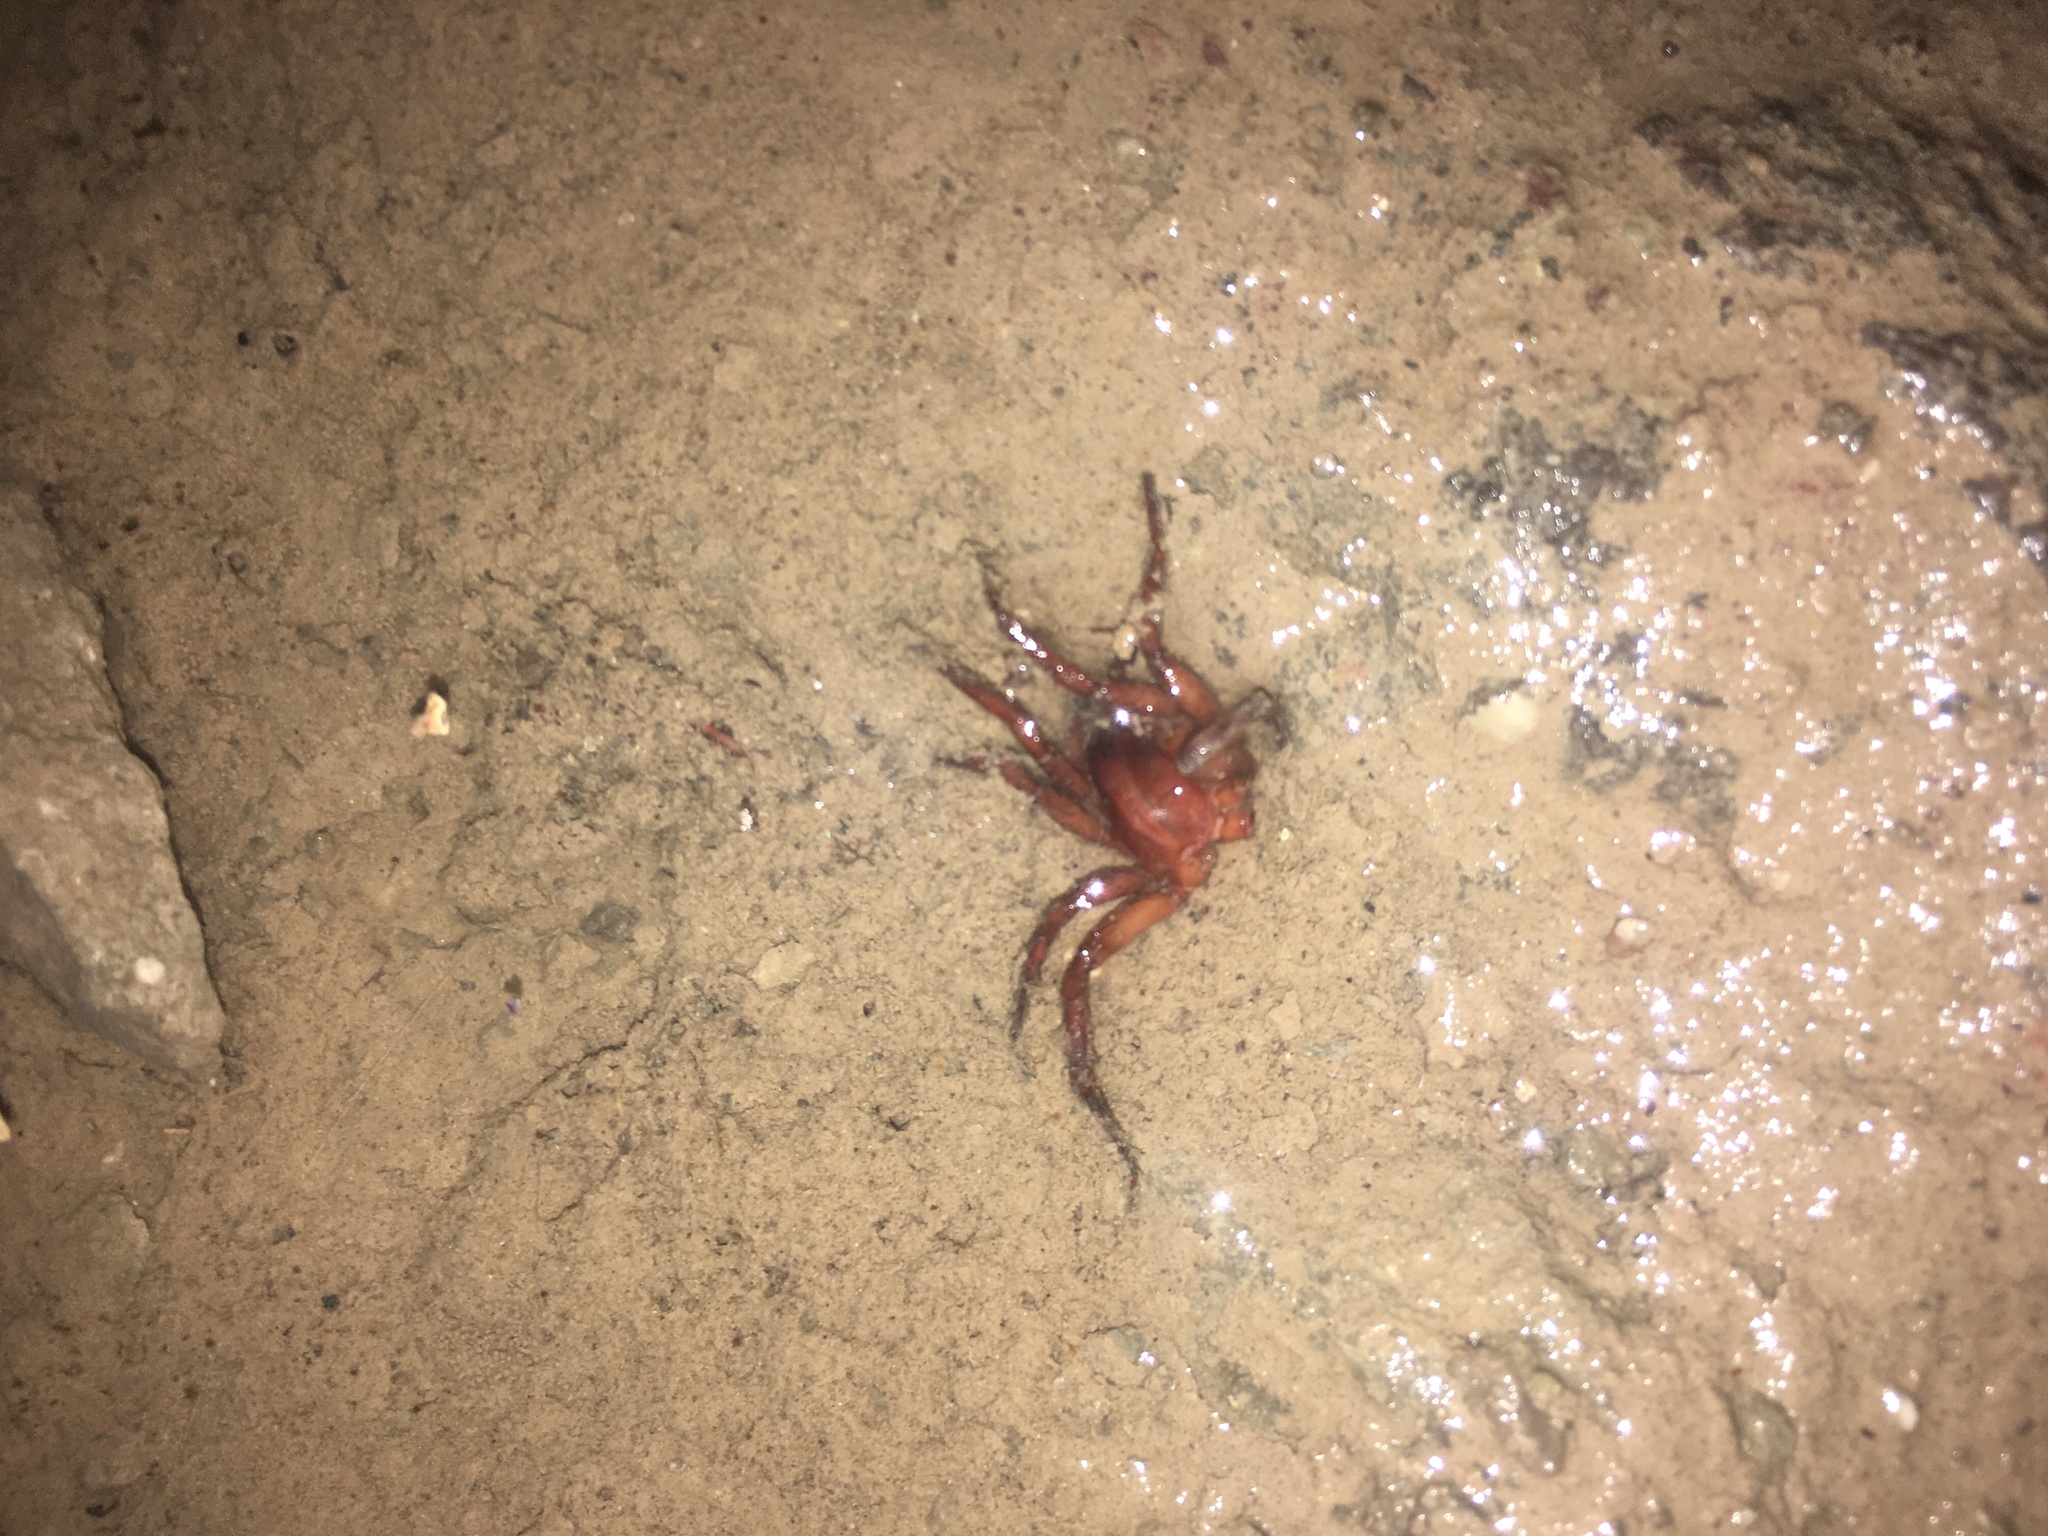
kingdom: Animalia
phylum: Arthropoda
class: Arachnida
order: Araneae
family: Dysderidae
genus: Dysdera
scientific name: Dysdera
